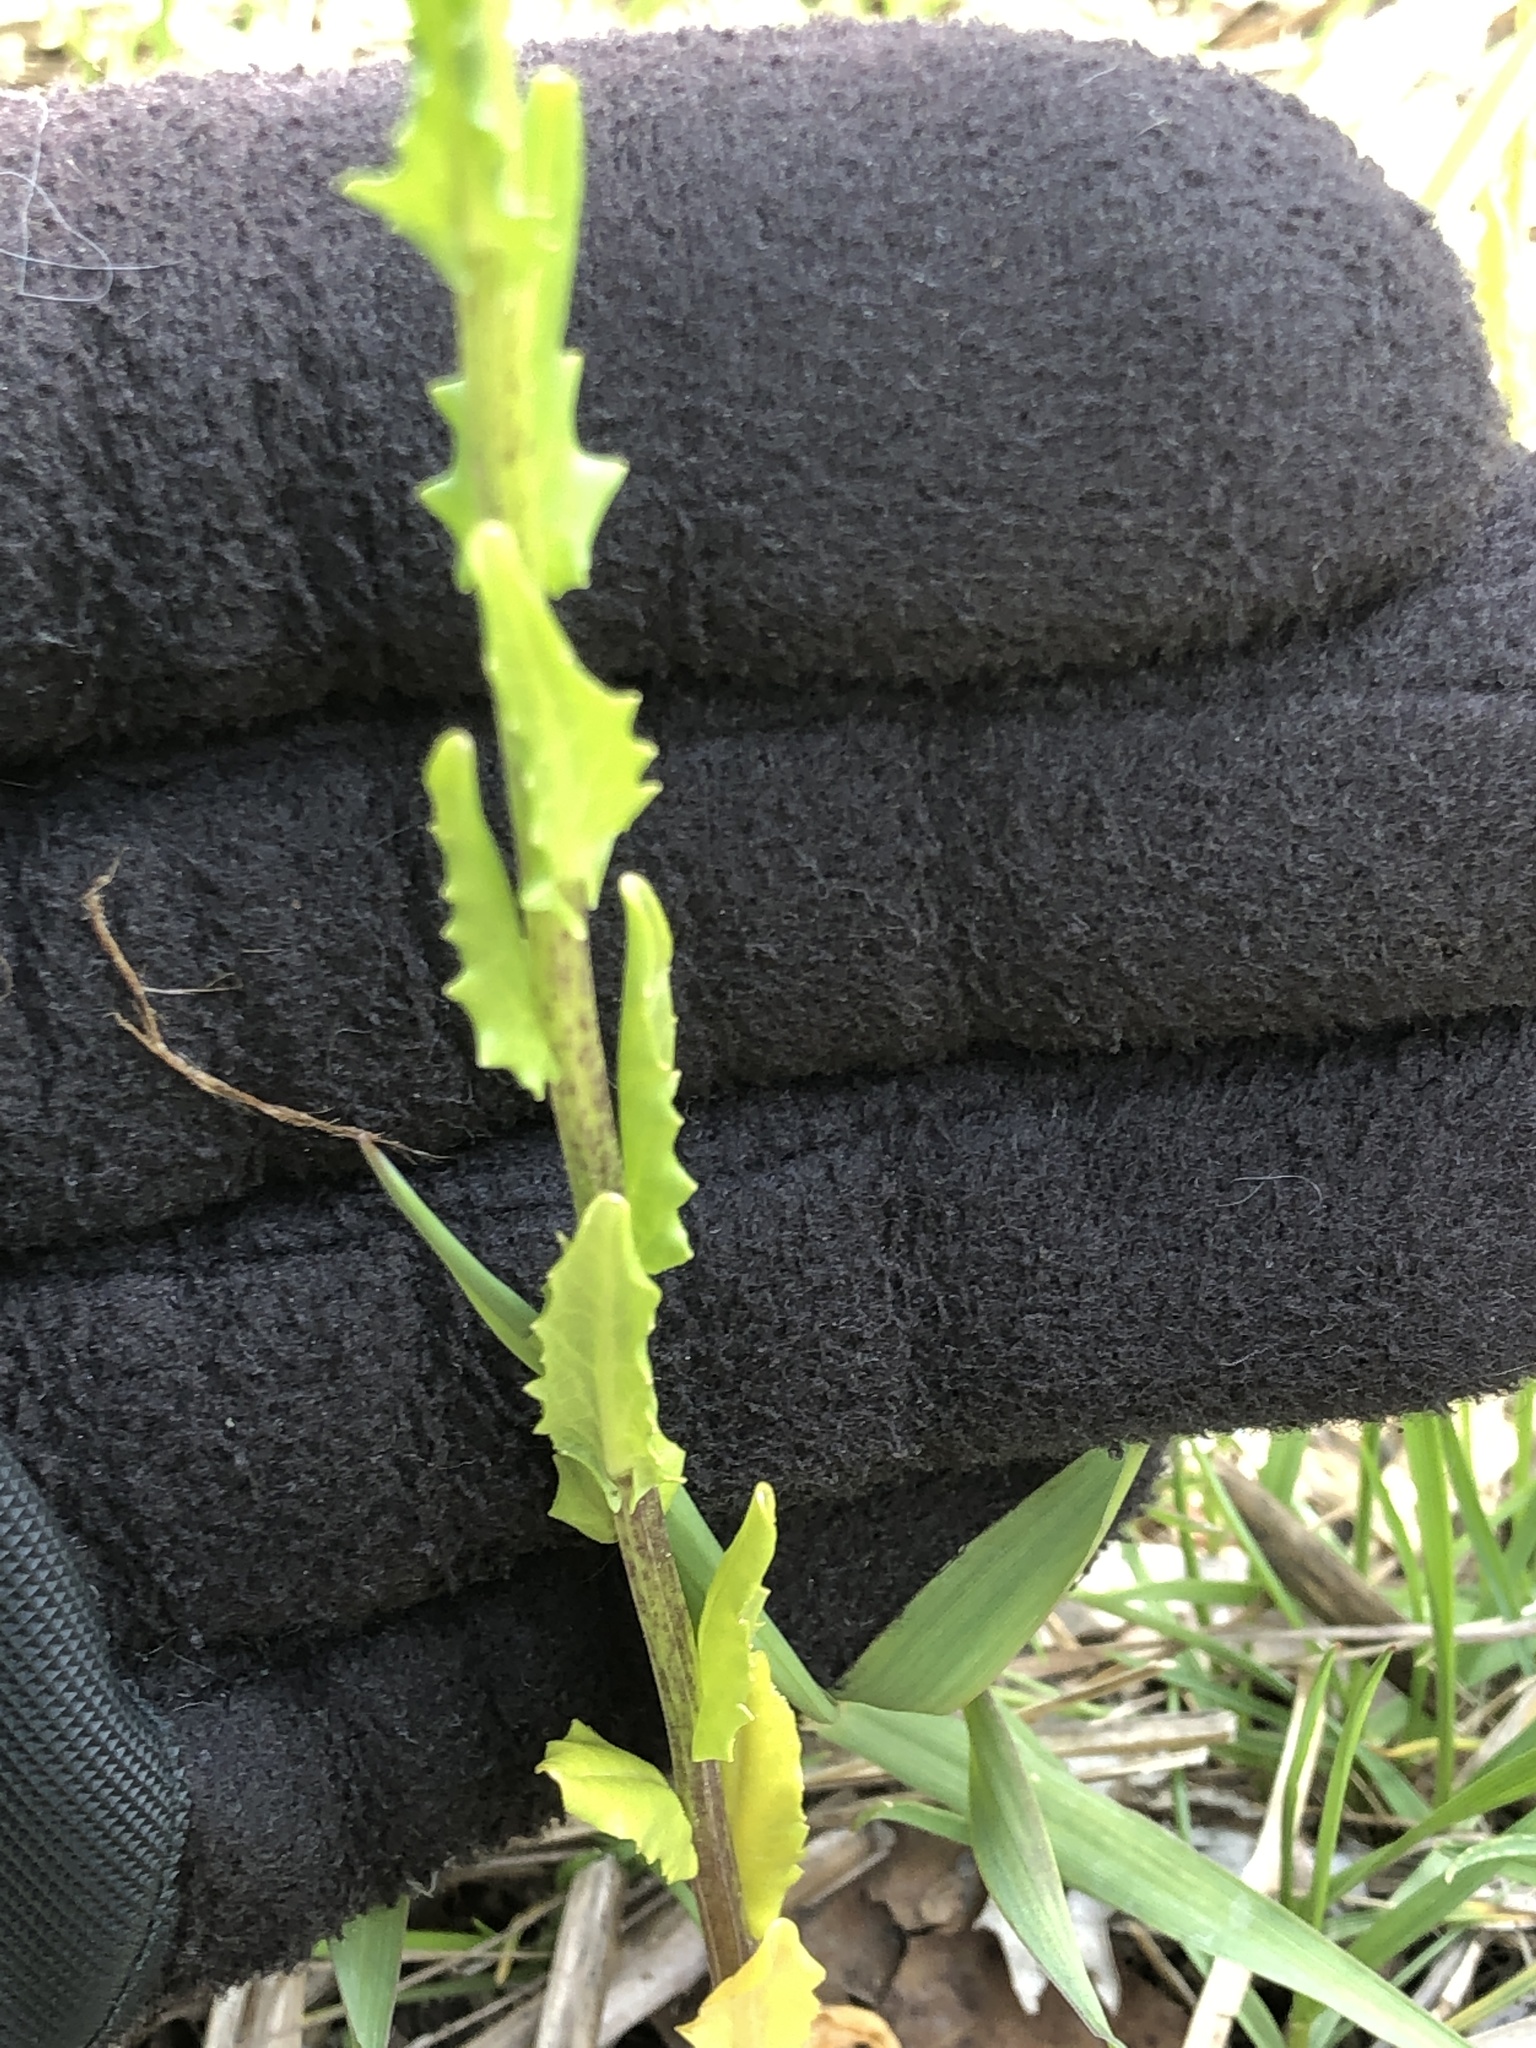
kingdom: Plantae
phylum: Tracheophyta
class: Magnoliopsida
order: Brassicales
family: Brassicaceae
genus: Thlaspi
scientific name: Thlaspi arvense
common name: Field pennycress
